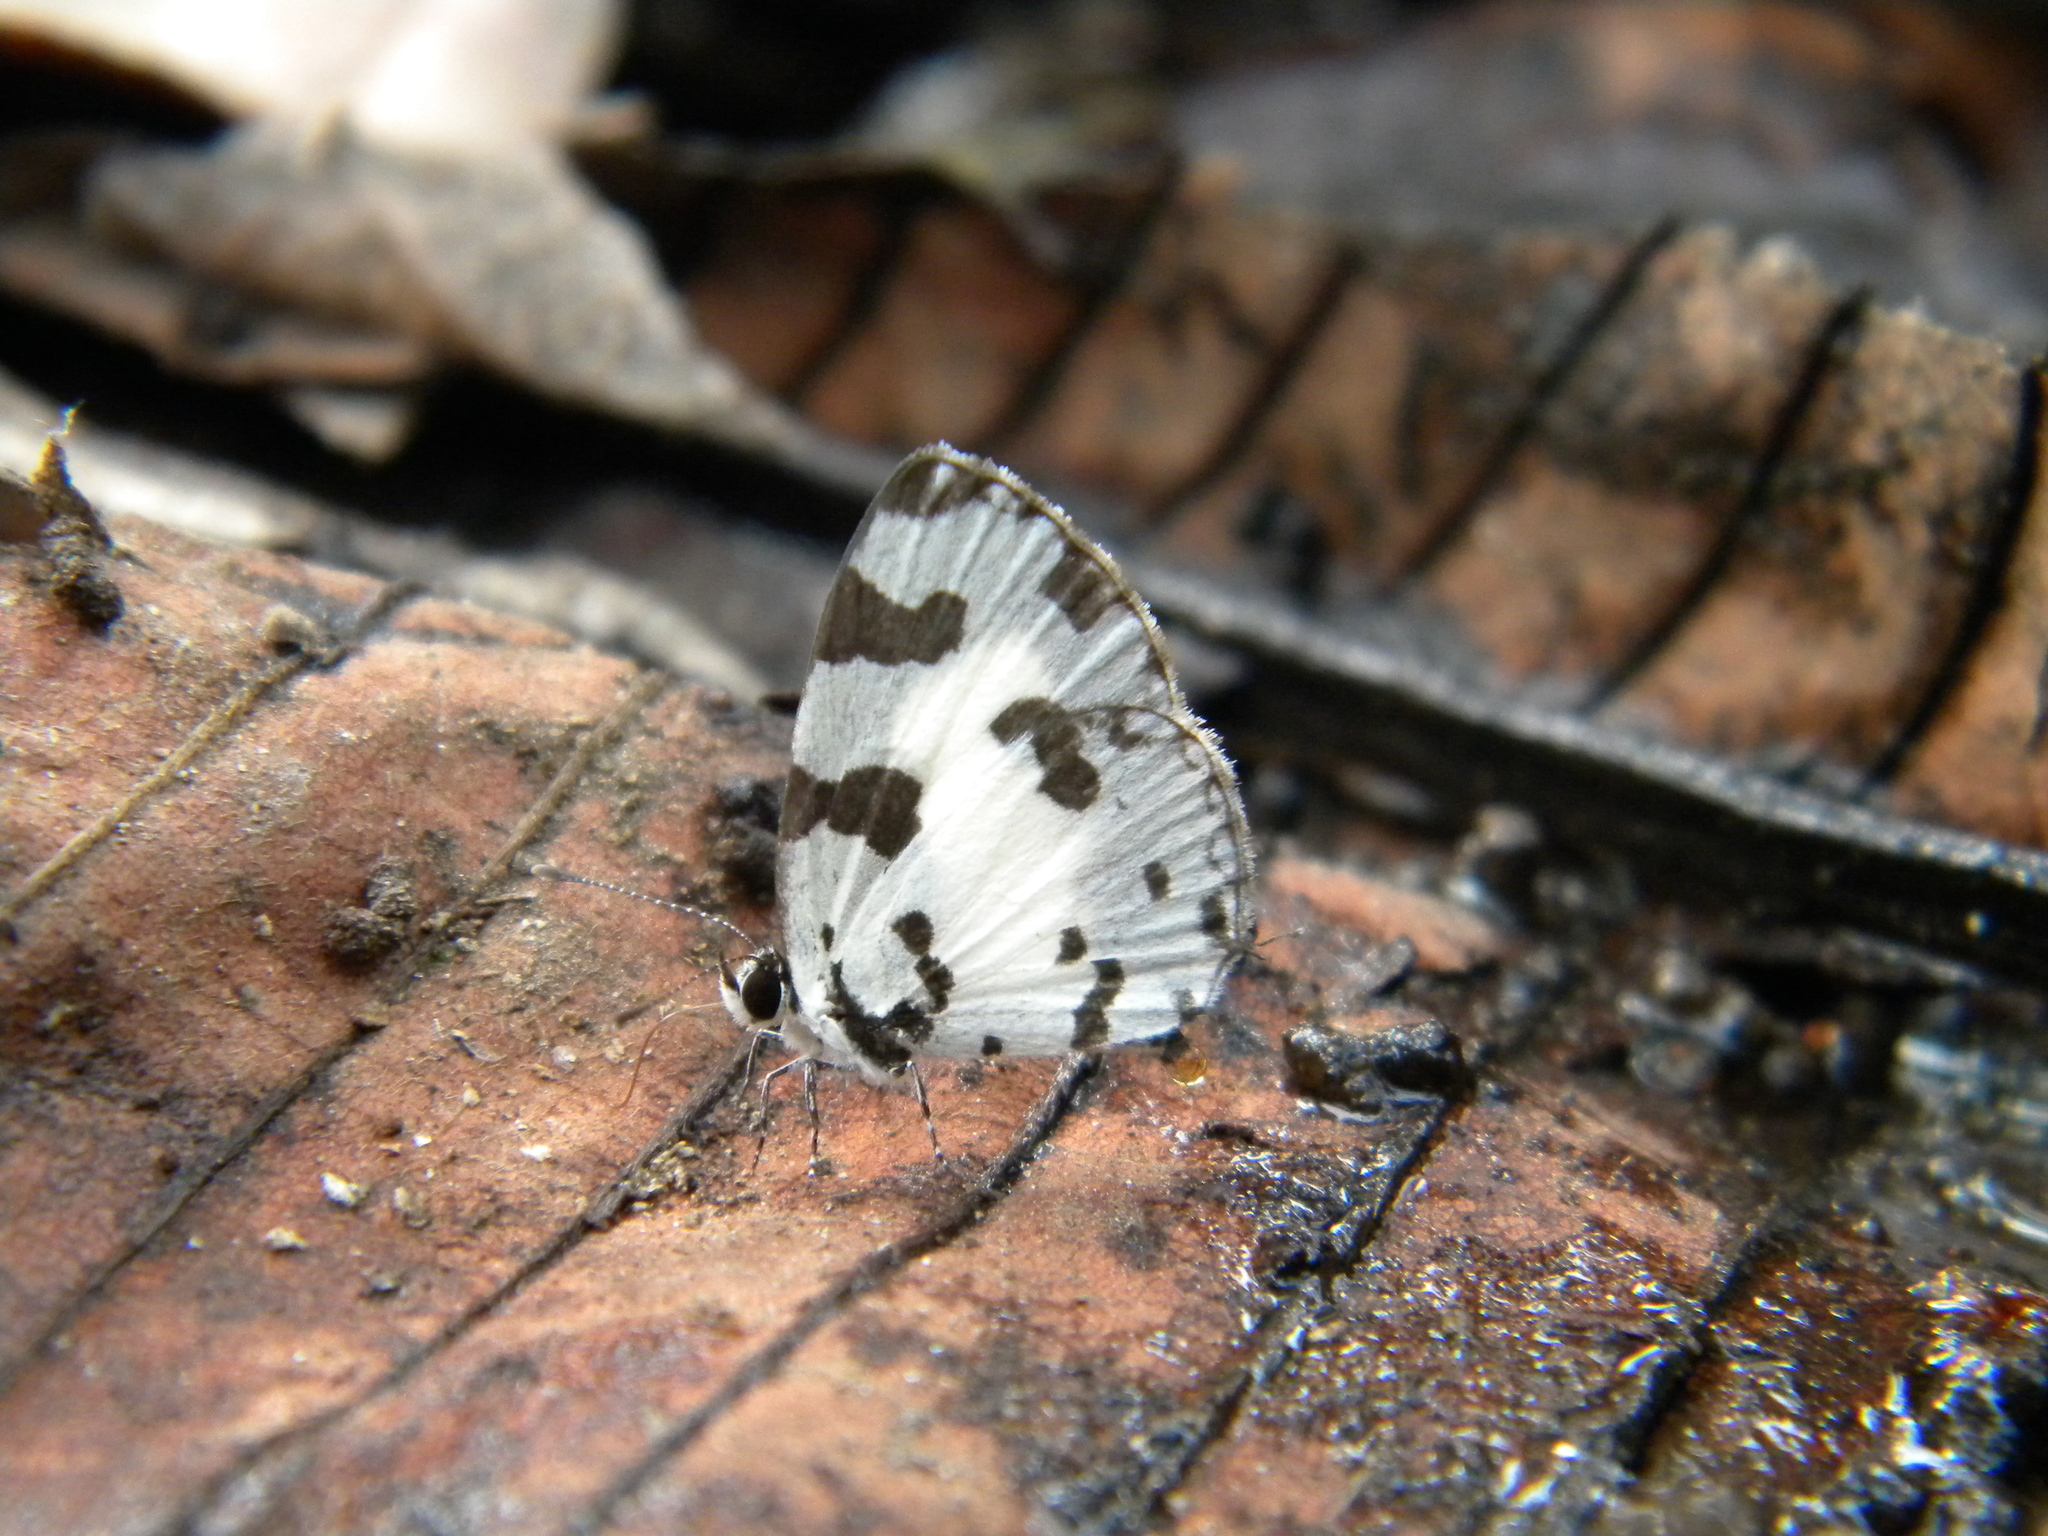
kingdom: Animalia
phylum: Arthropoda
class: Insecta
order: Lepidoptera
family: Lycaenidae
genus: Caleta
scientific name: Caleta decidia
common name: Angled pierrot
